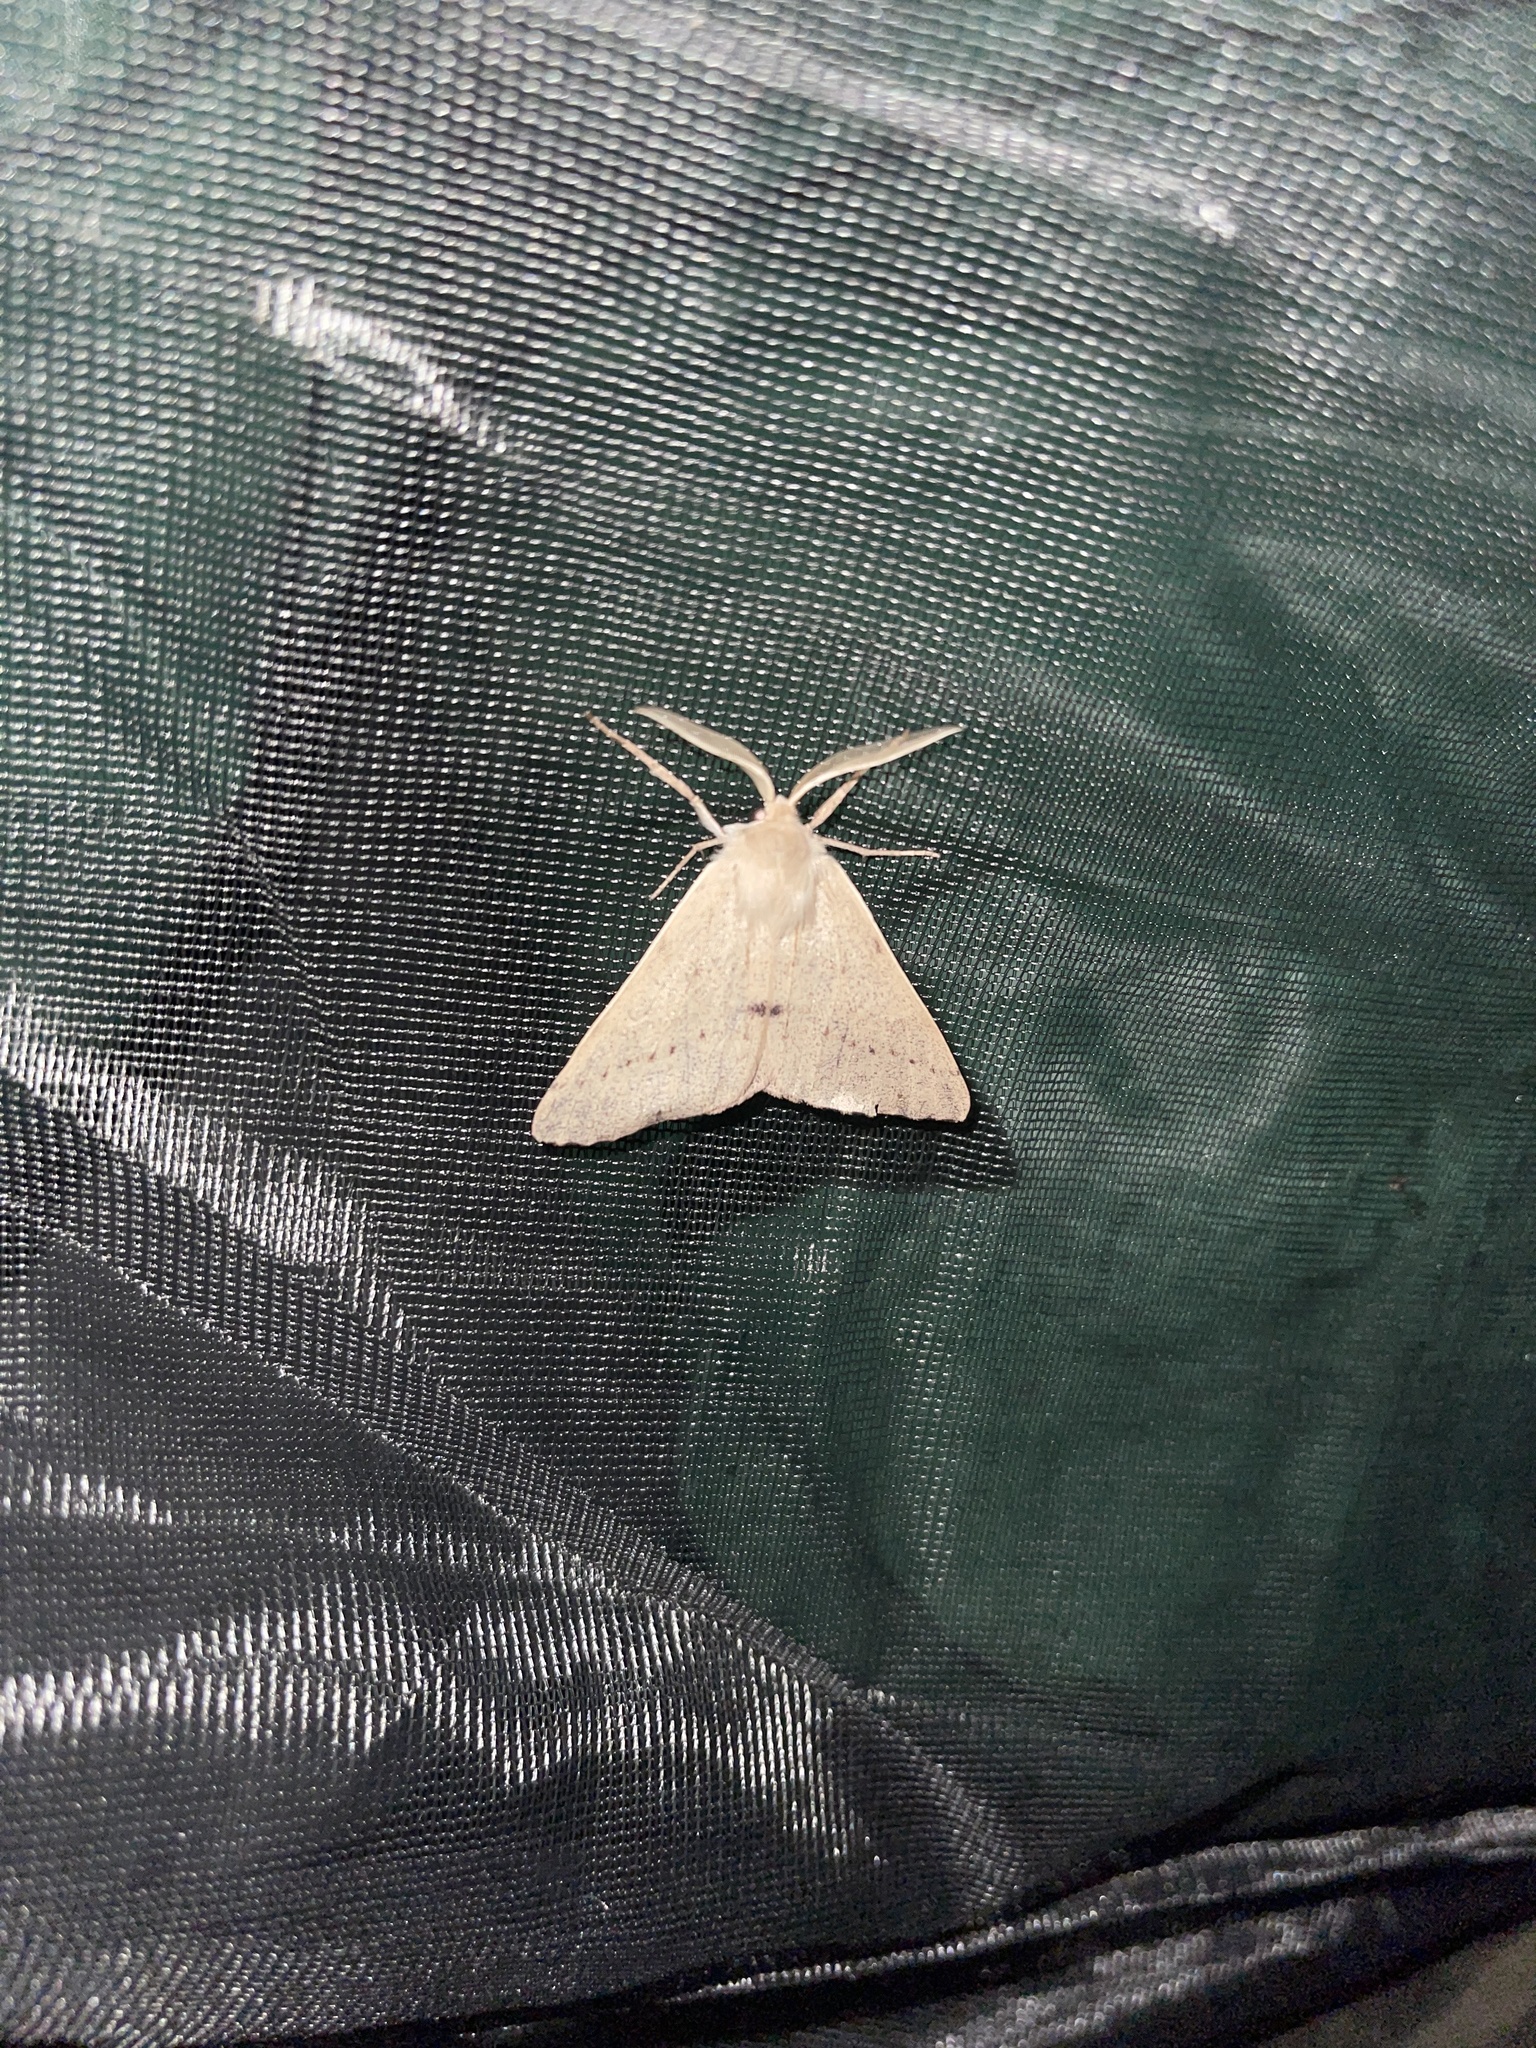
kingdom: Animalia
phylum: Arthropoda
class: Insecta
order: Lepidoptera
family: Geometridae
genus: Arhodia
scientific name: Arhodia lasiocamparia
